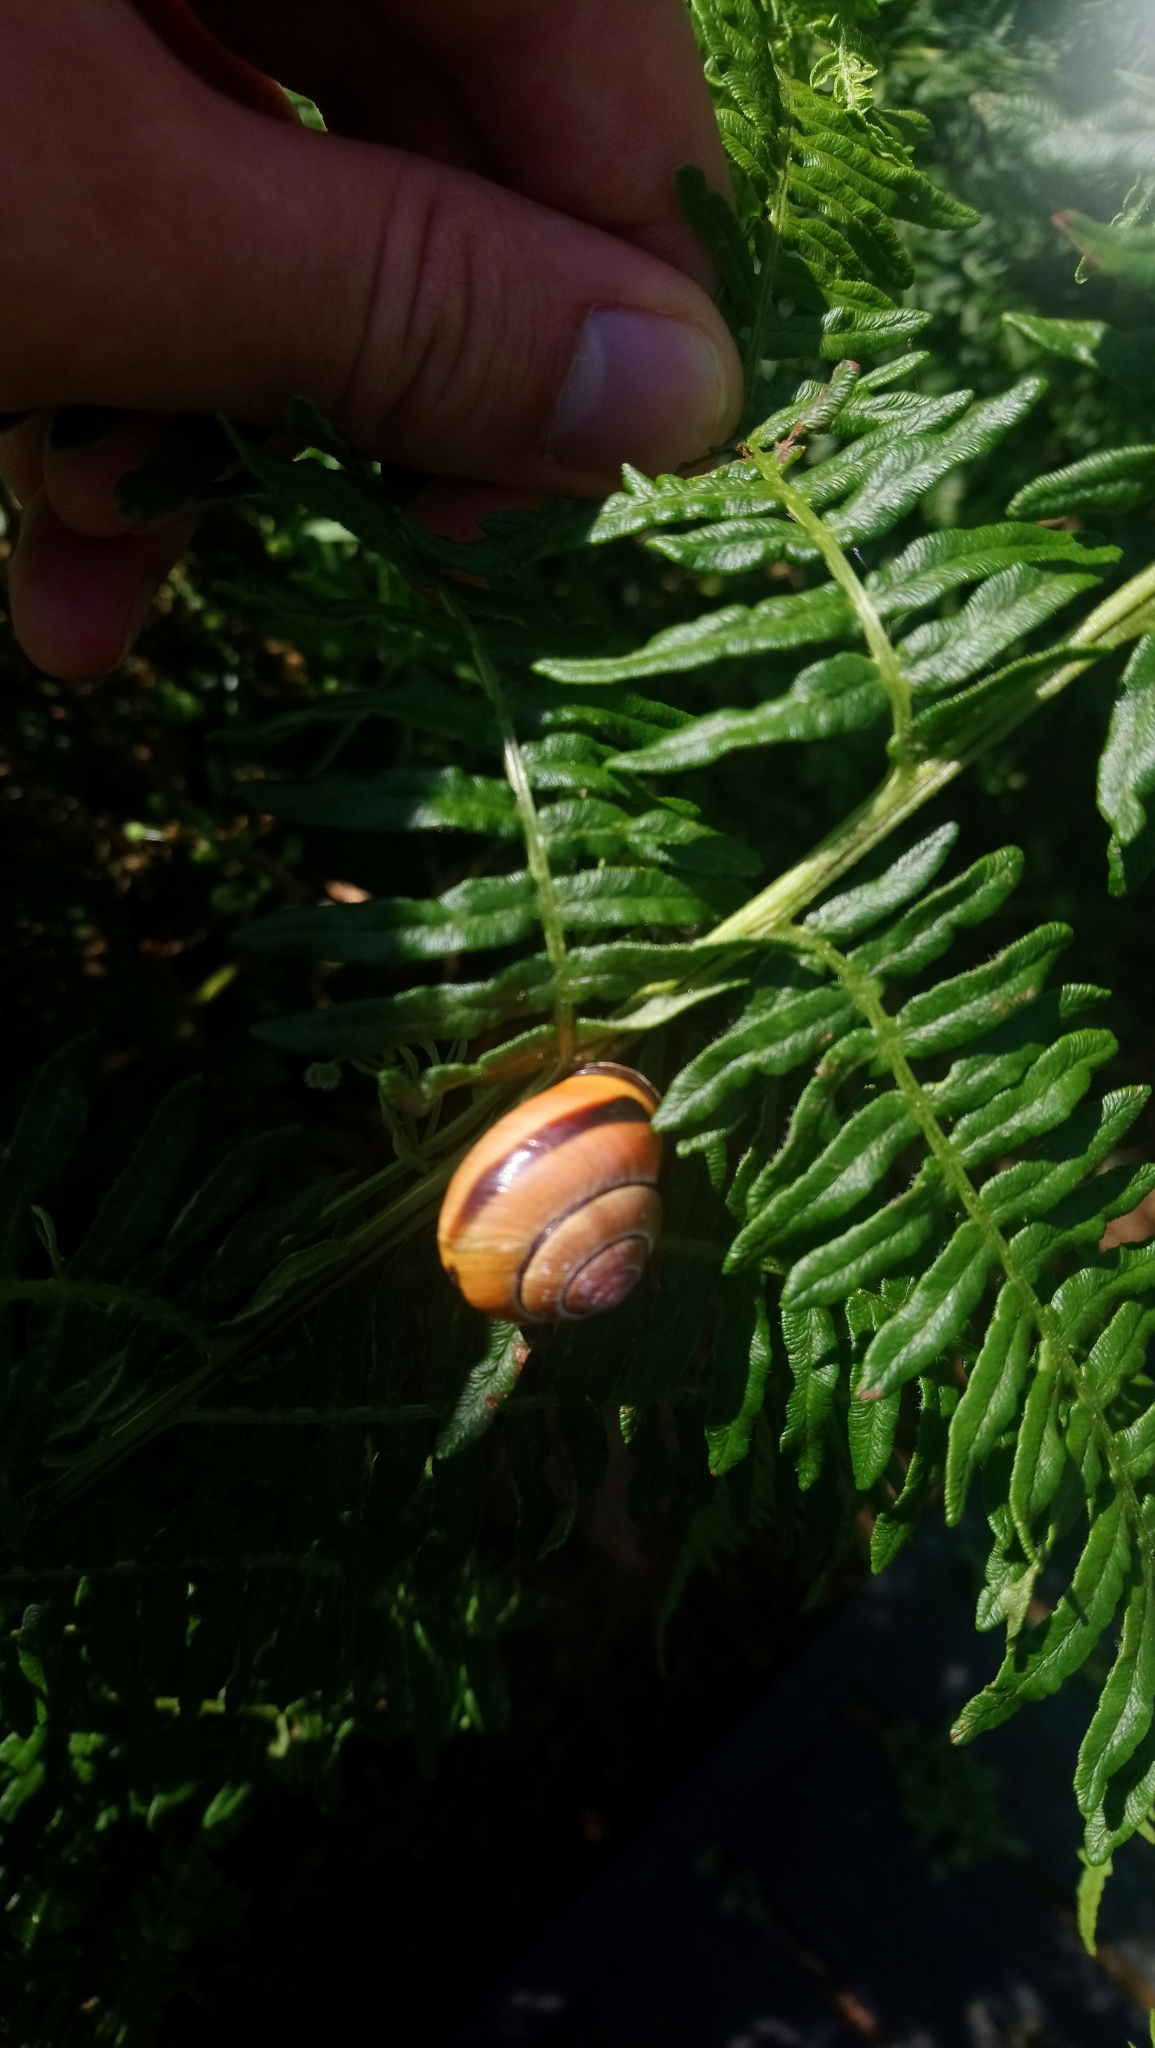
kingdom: Animalia
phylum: Mollusca
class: Gastropoda
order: Stylommatophora
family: Helicidae
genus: Cepaea
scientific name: Cepaea nemoralis
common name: Grovesnail
